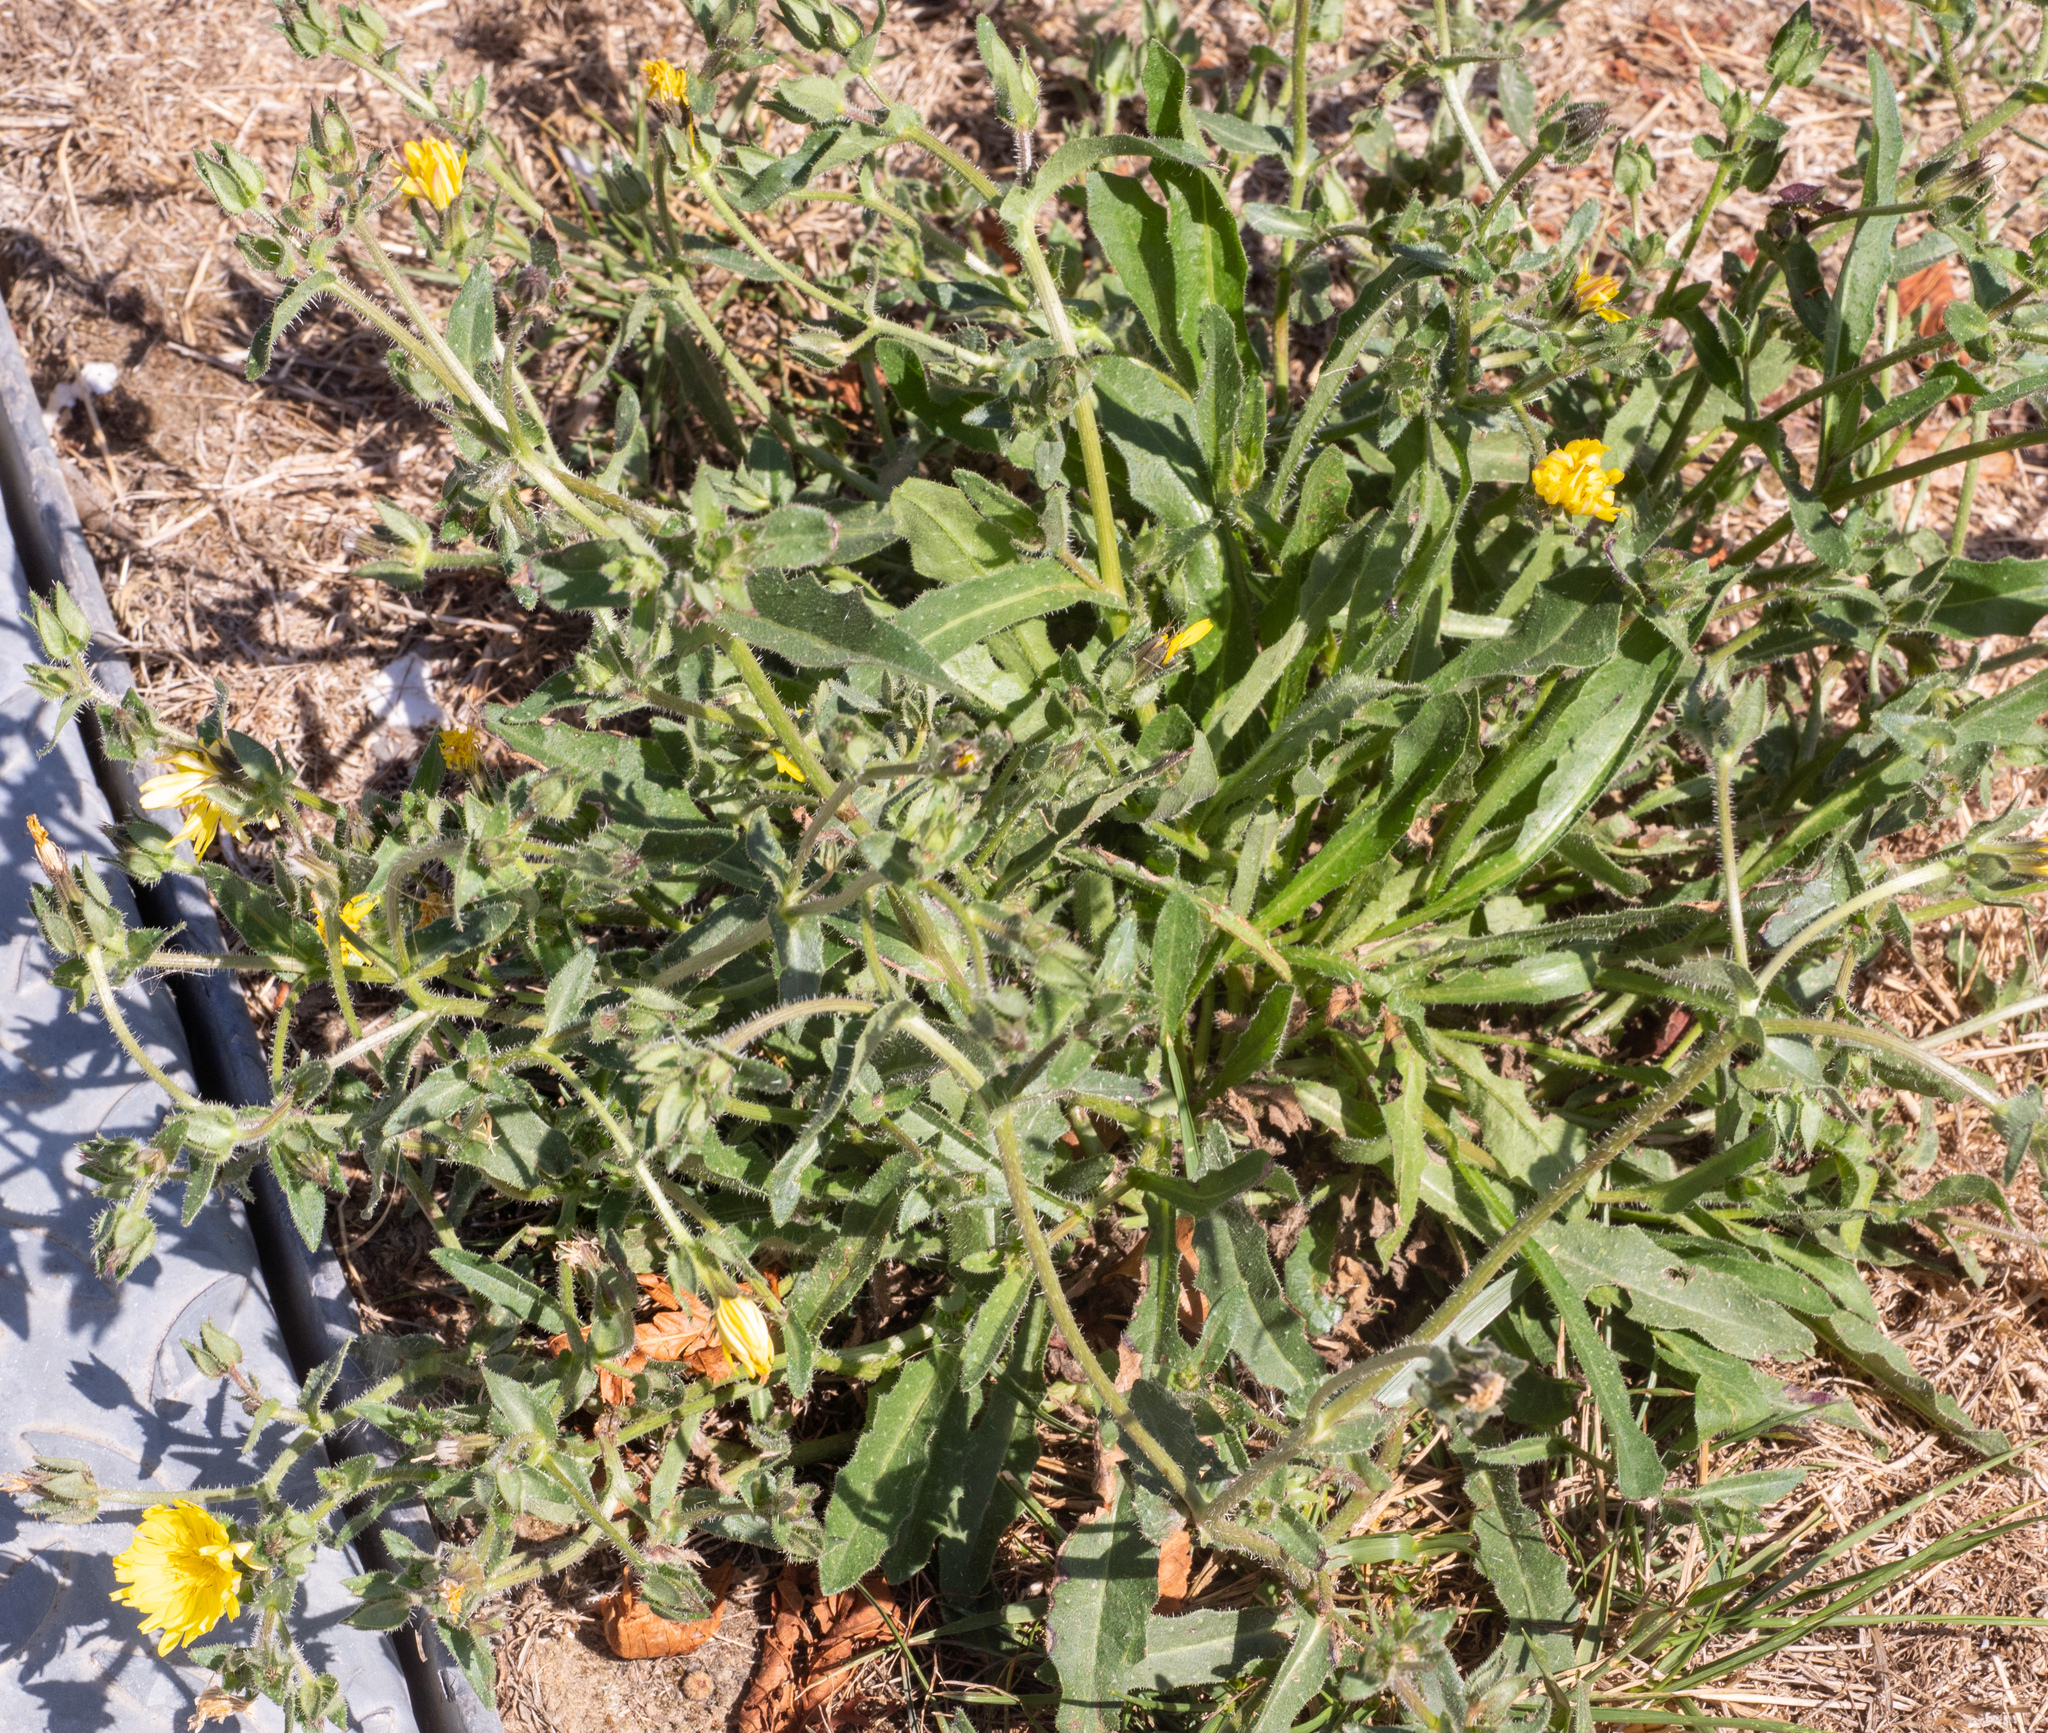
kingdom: Plantae
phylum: Tracheophyta
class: Magnoliopsida
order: Asterales
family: Asteraceae
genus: Helminthotheca
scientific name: Helminthotheca echioides
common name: Ox-tongue
